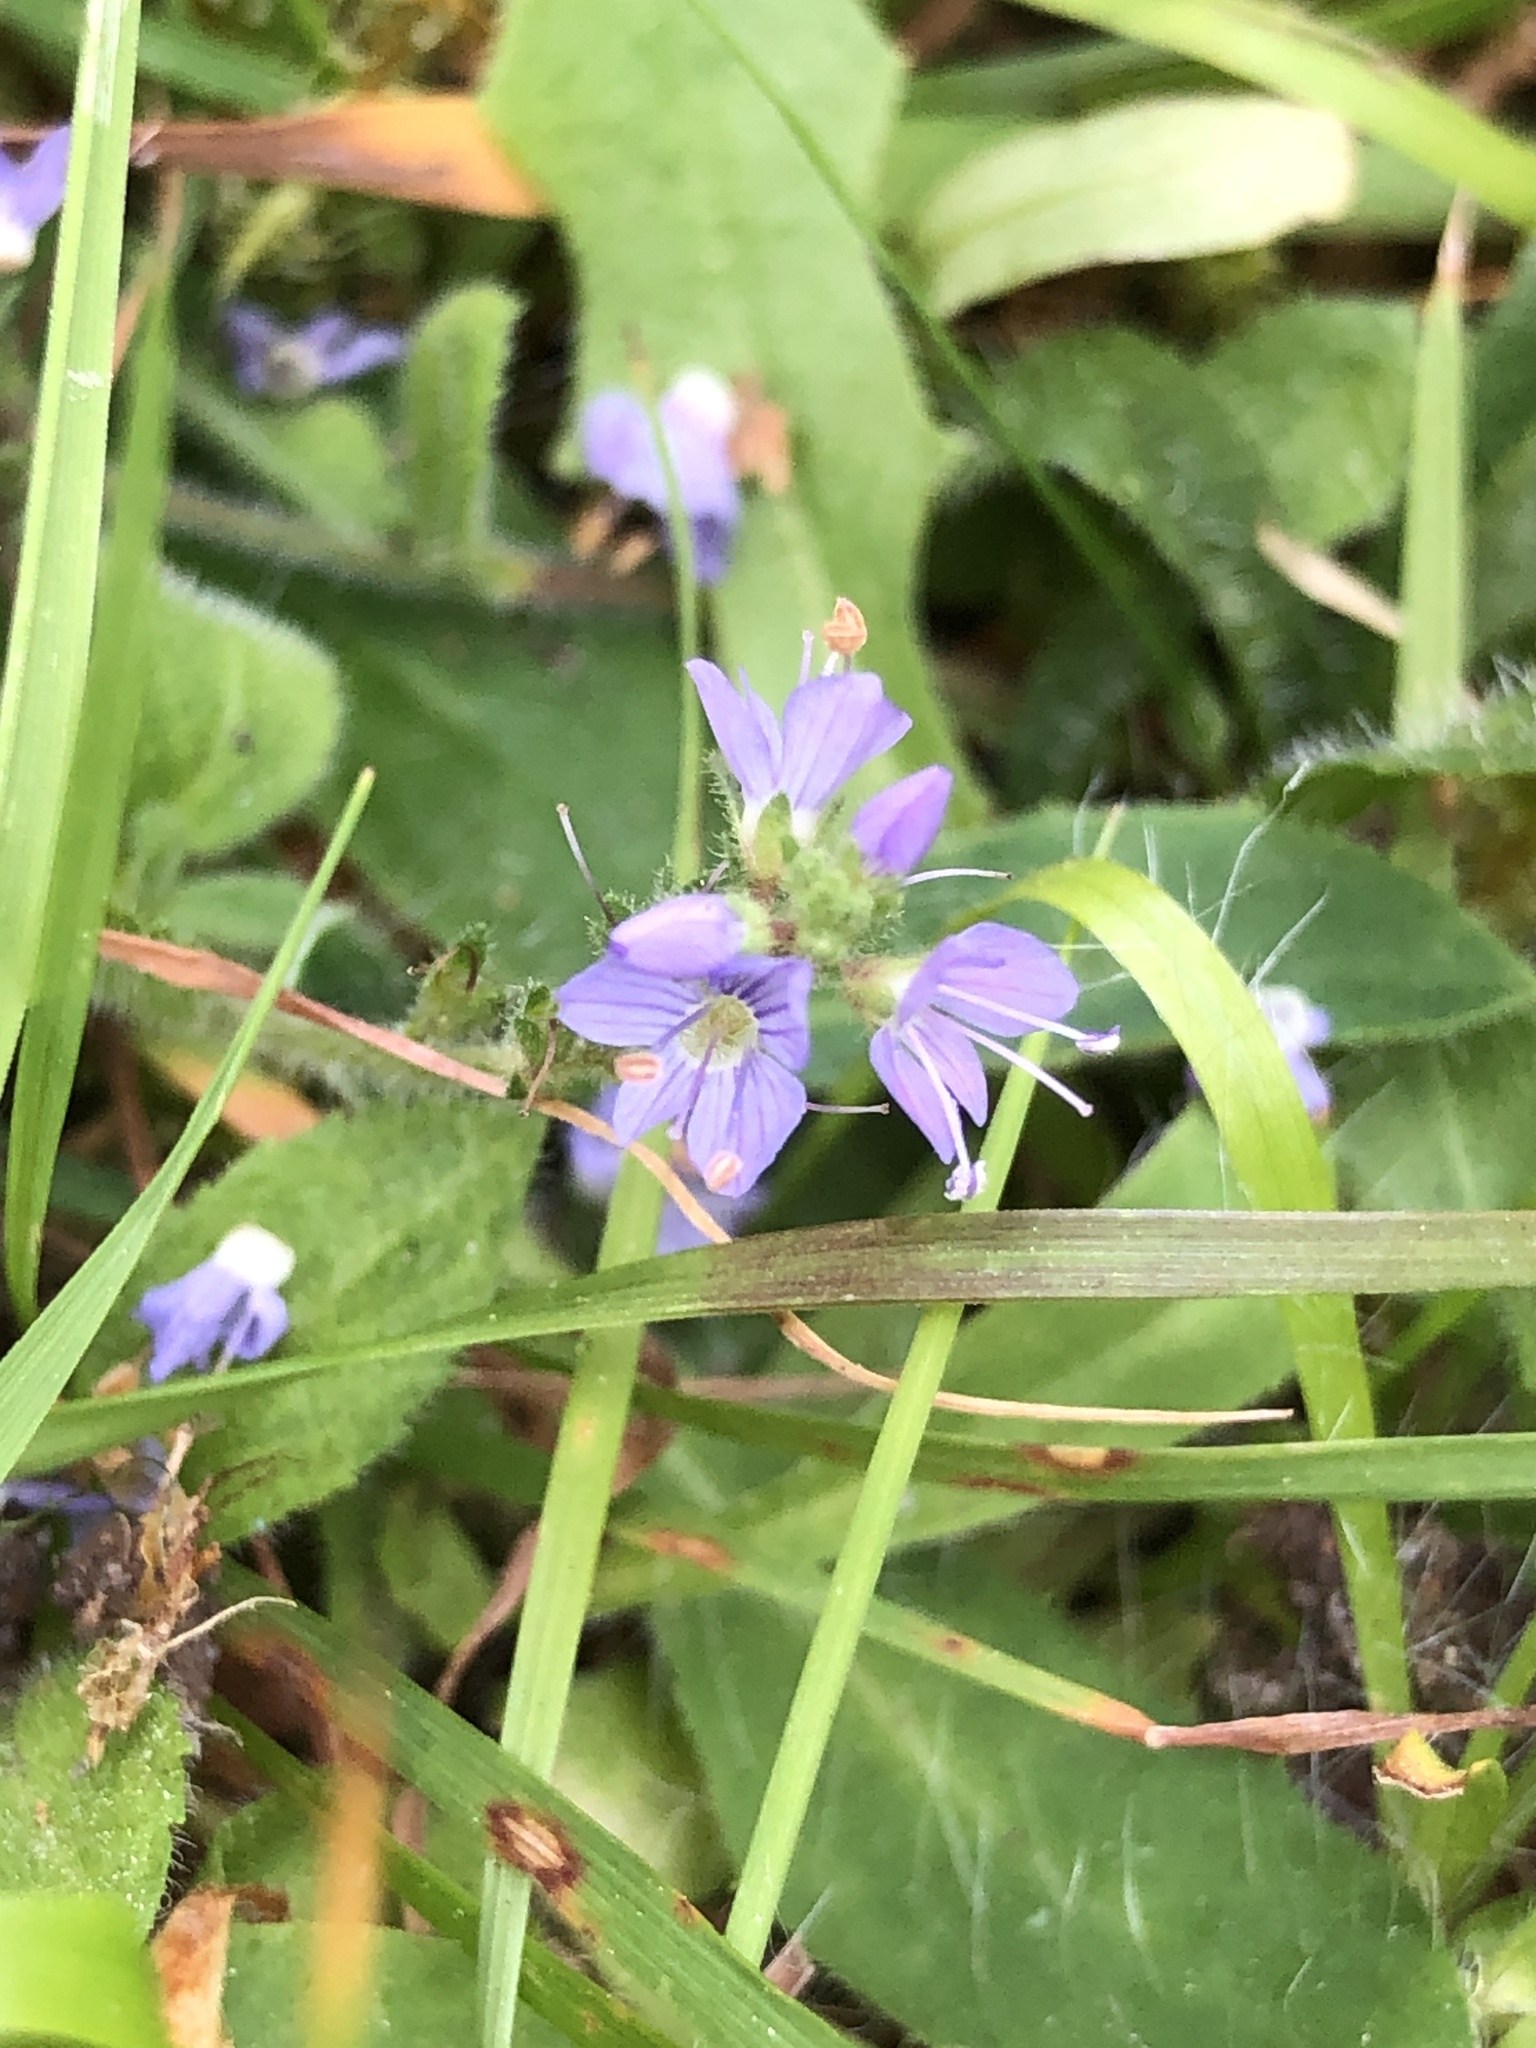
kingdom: Plantae
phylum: Tracheophyta
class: Magnoliopsida
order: Lamiales
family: Plantaginaceae
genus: Veronica
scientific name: Veronica officinalis
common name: Common speedwell
